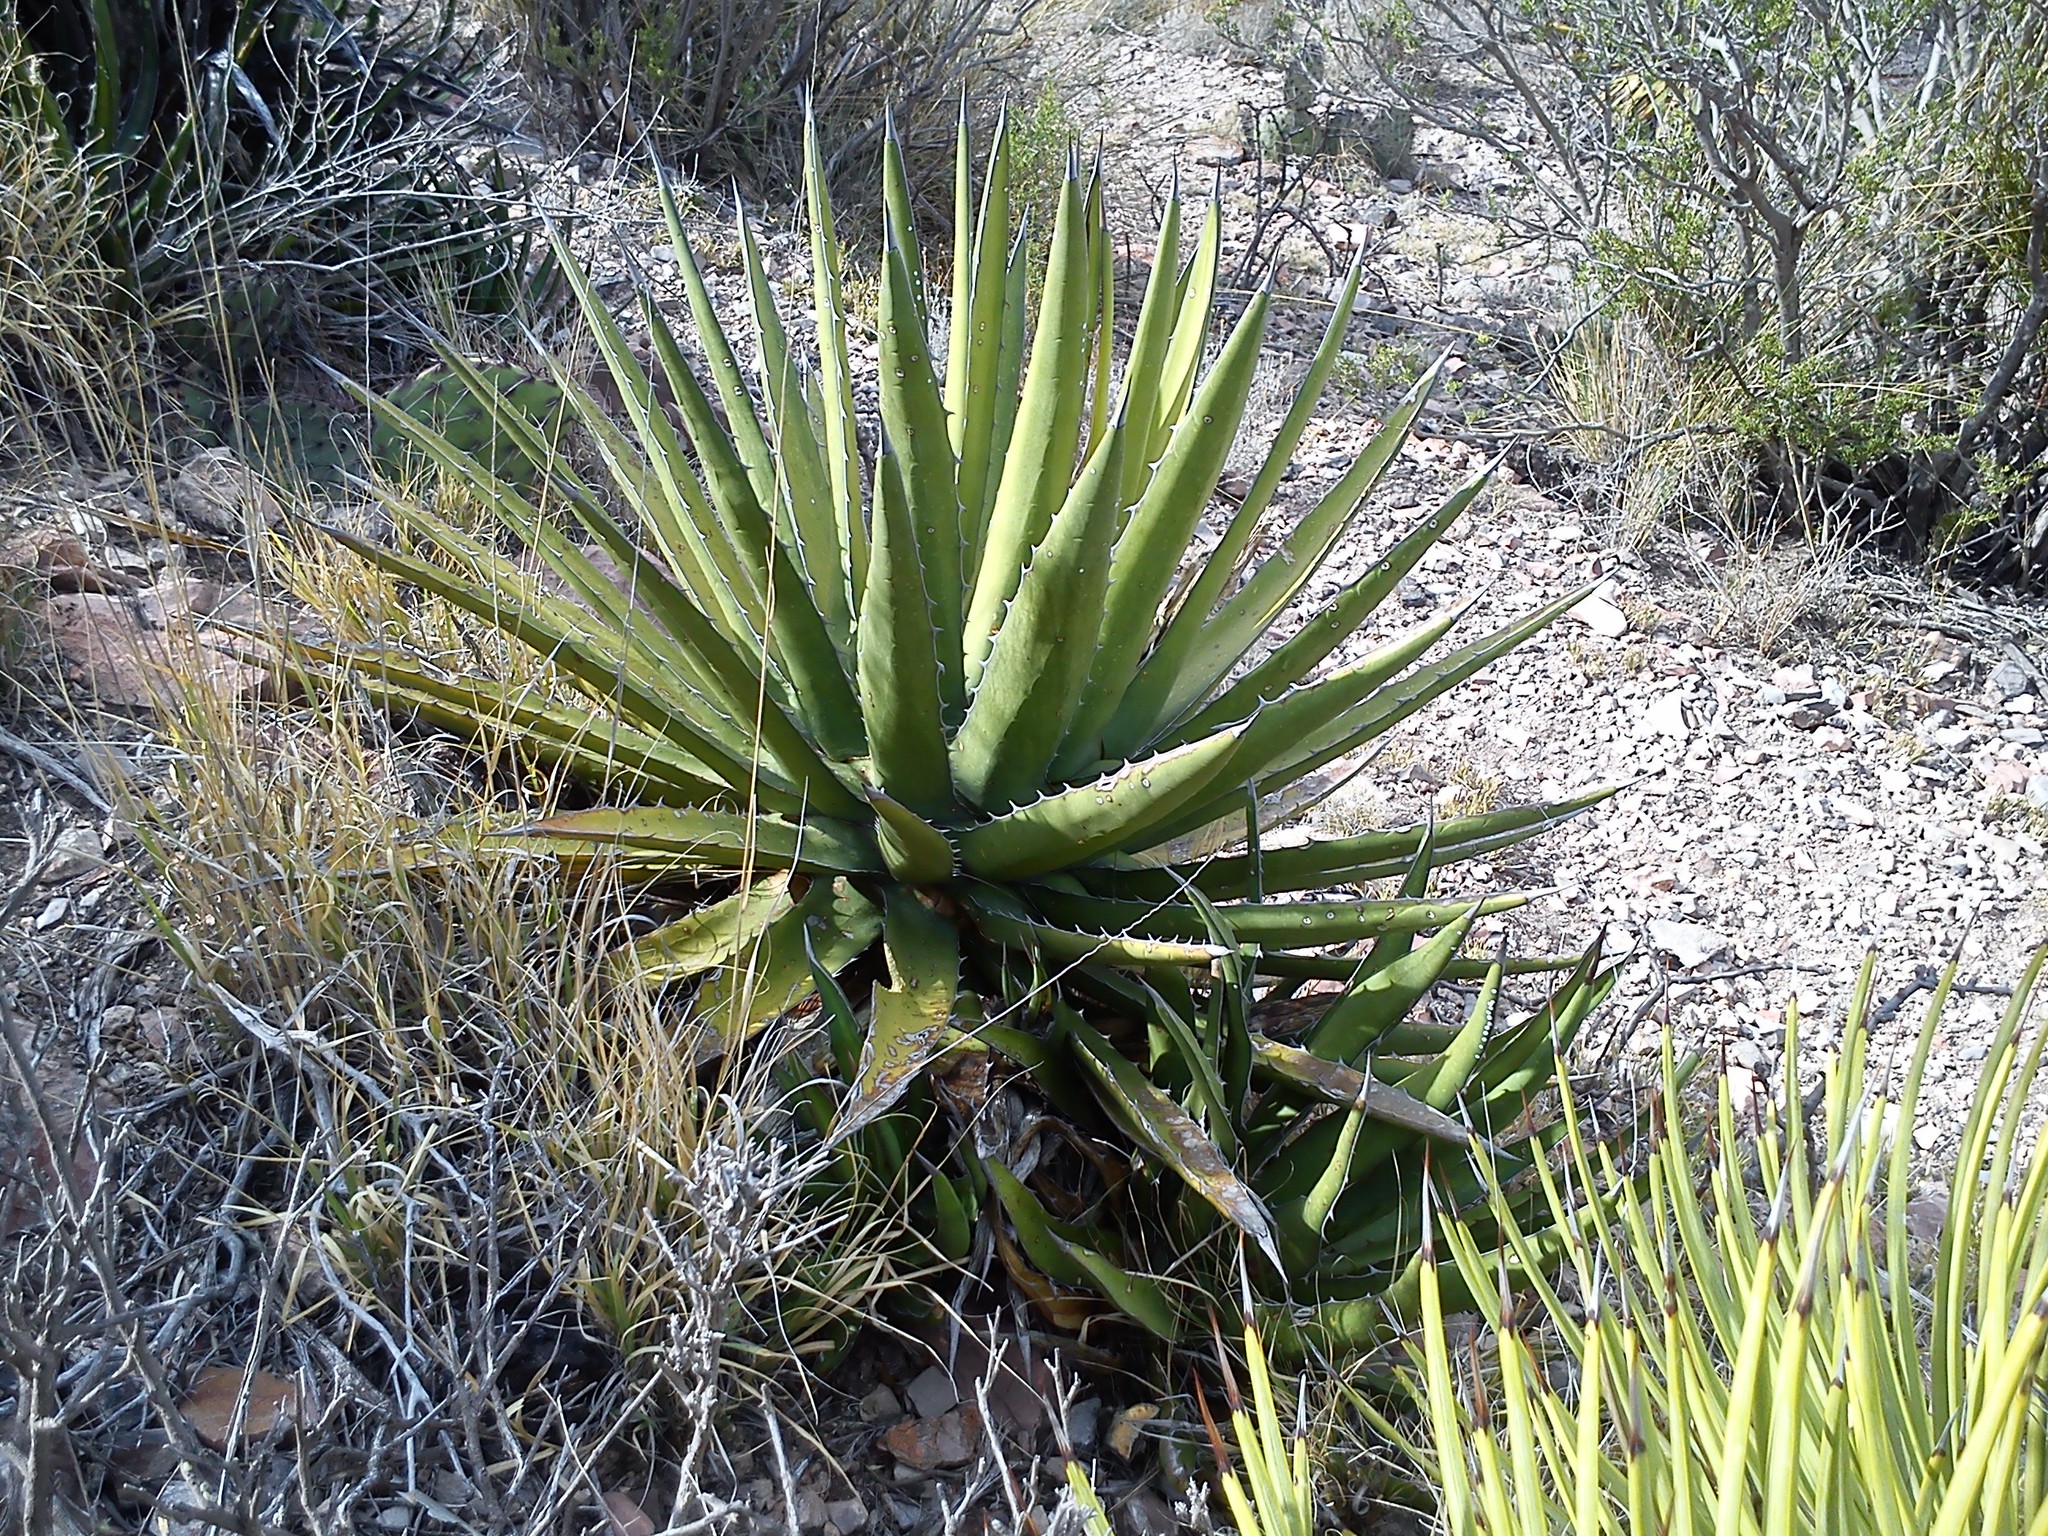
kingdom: Plantae
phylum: Tracheophyta
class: Liliopsida
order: Asparagales
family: Asparagaceae
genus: Agave
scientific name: Agave lechuguilla
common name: Lecheguilla agave
